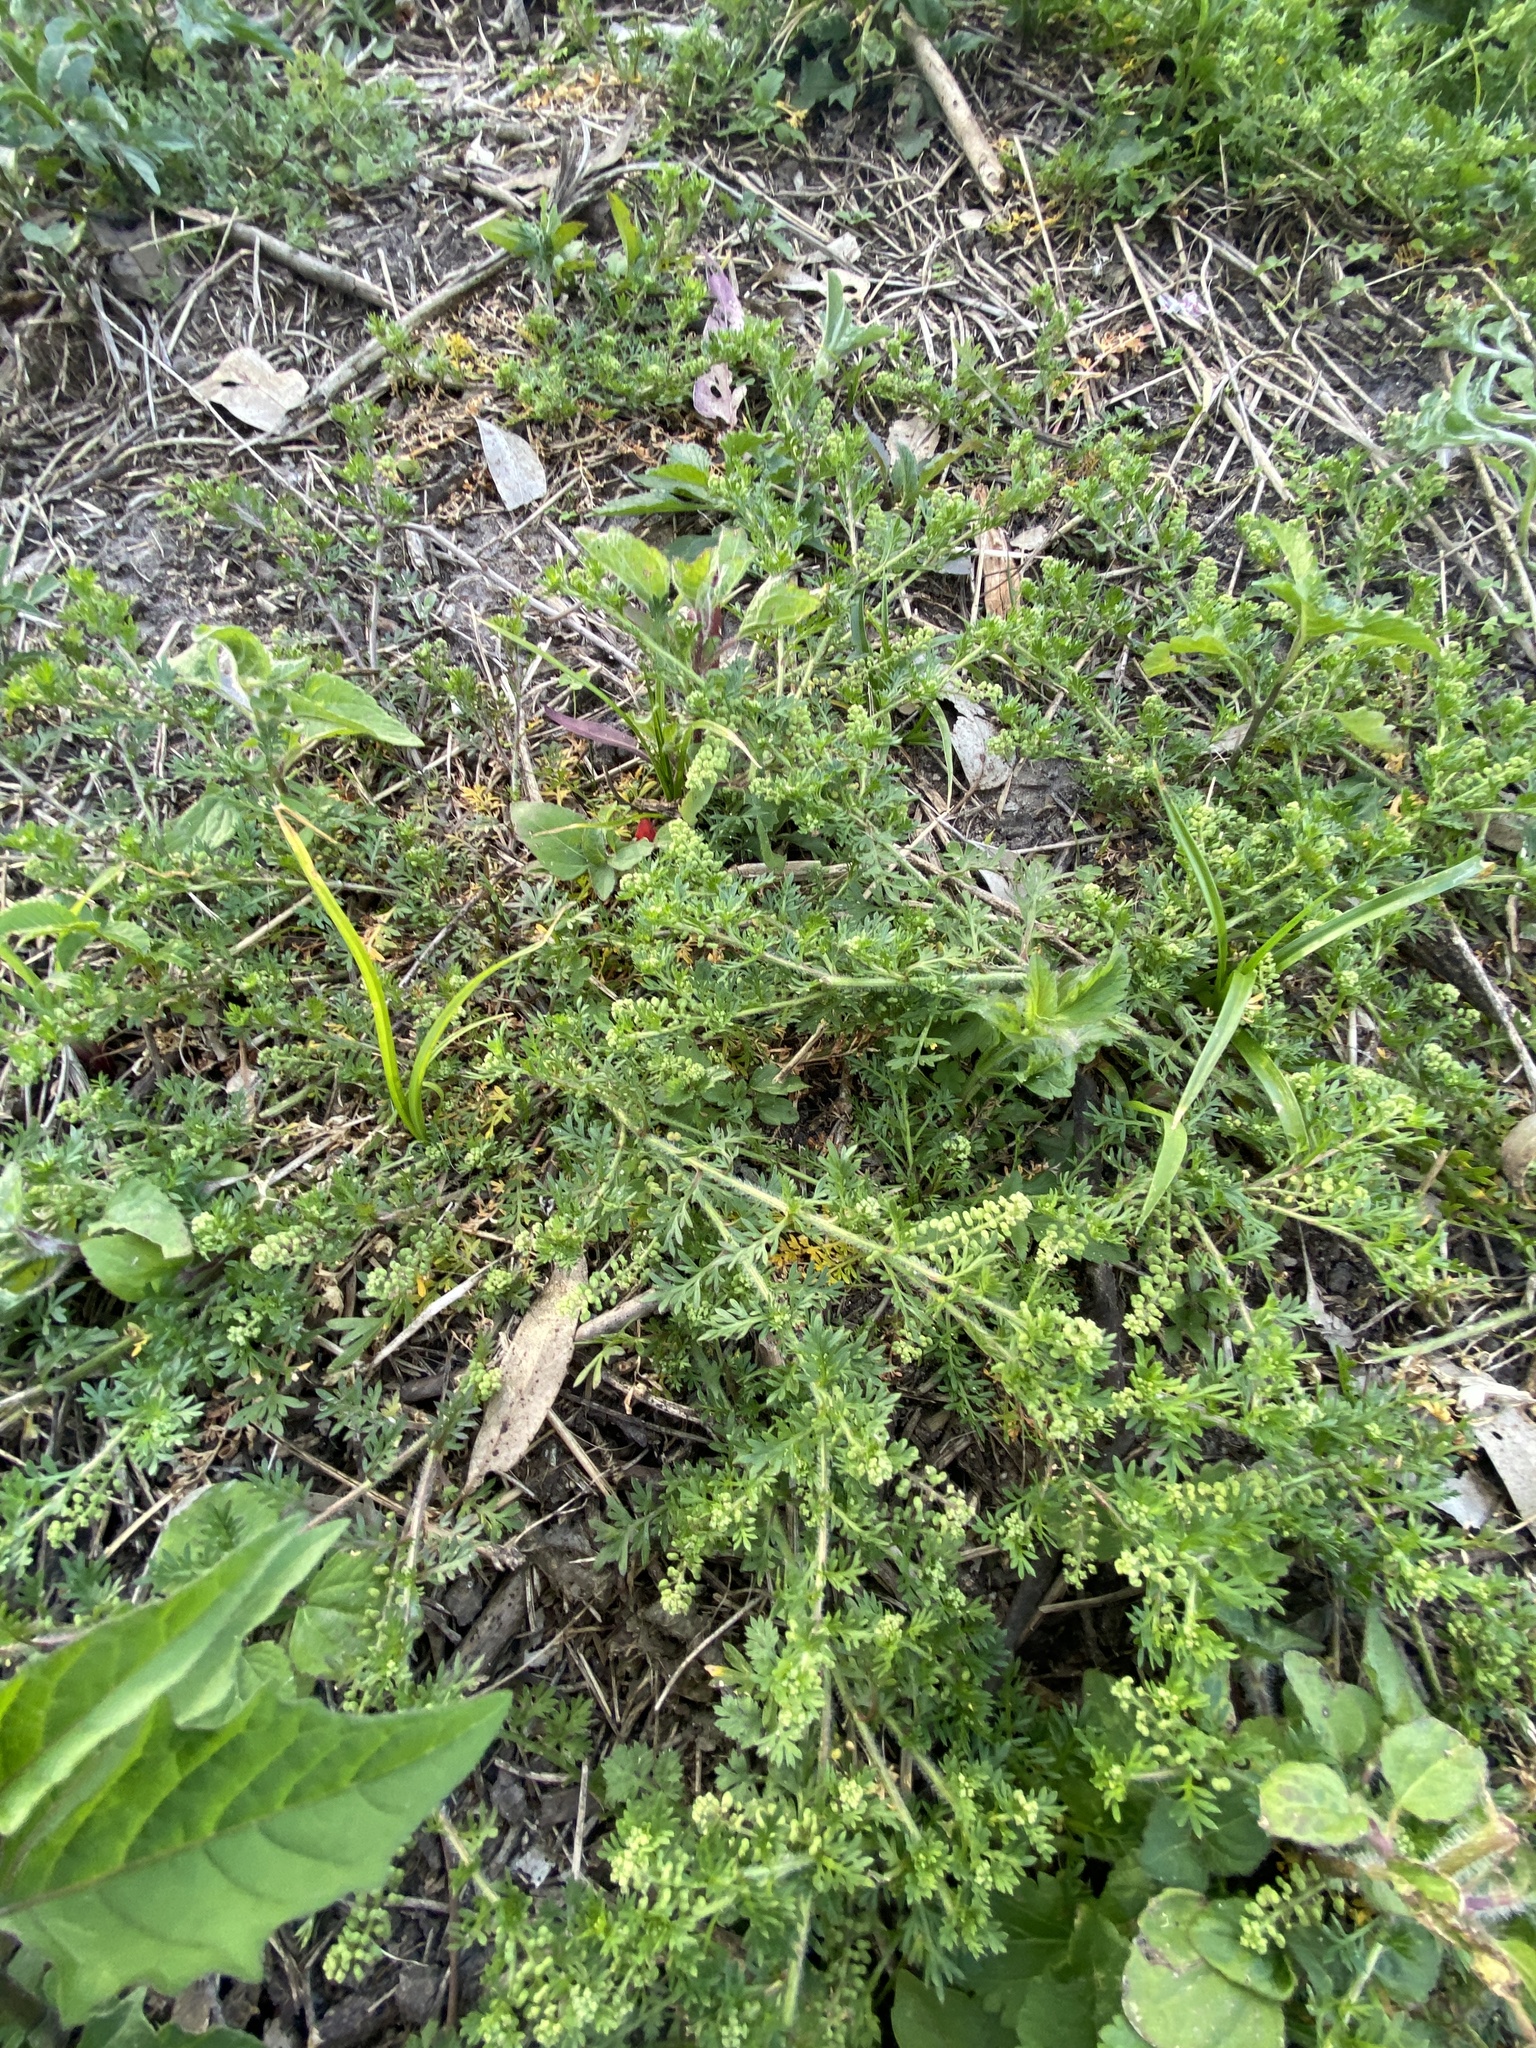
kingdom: Plantae
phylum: Tracheophyta
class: Magnoliopsida
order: Brassicales
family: Brassicaceae
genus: Lepidium
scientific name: Lepidium didymum
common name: Lesser swinecress
